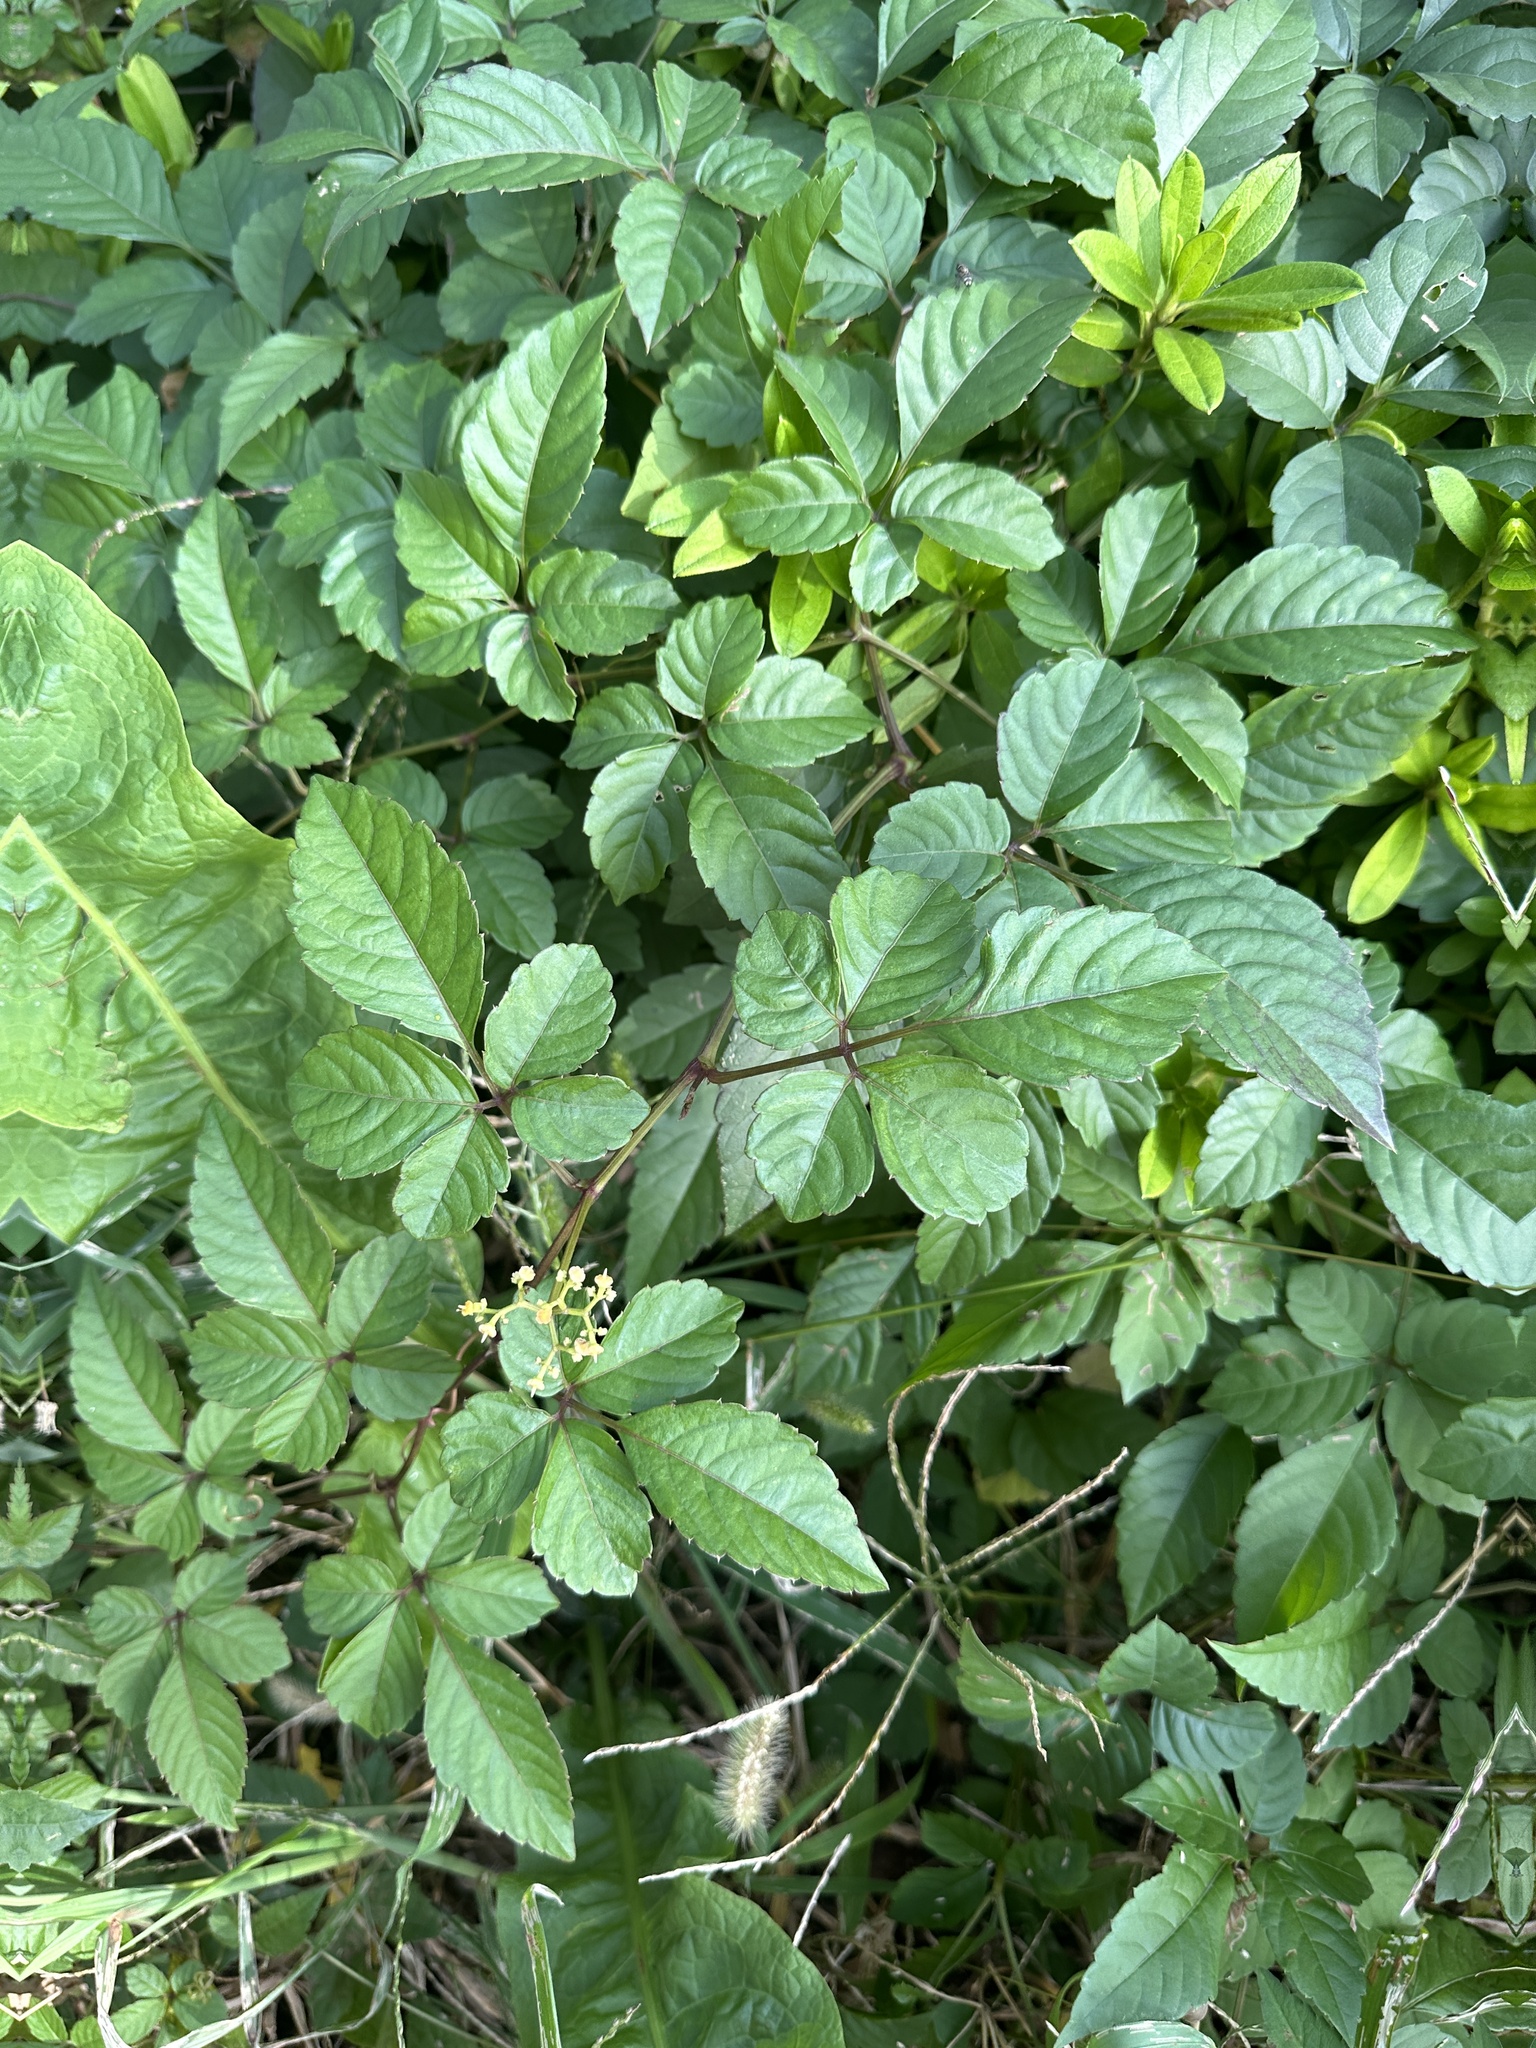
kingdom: Plantae
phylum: Tracheophyta
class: Magnoliopsida
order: Vitales
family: Vitaceae
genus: Causonis
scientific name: Causonis japonica
